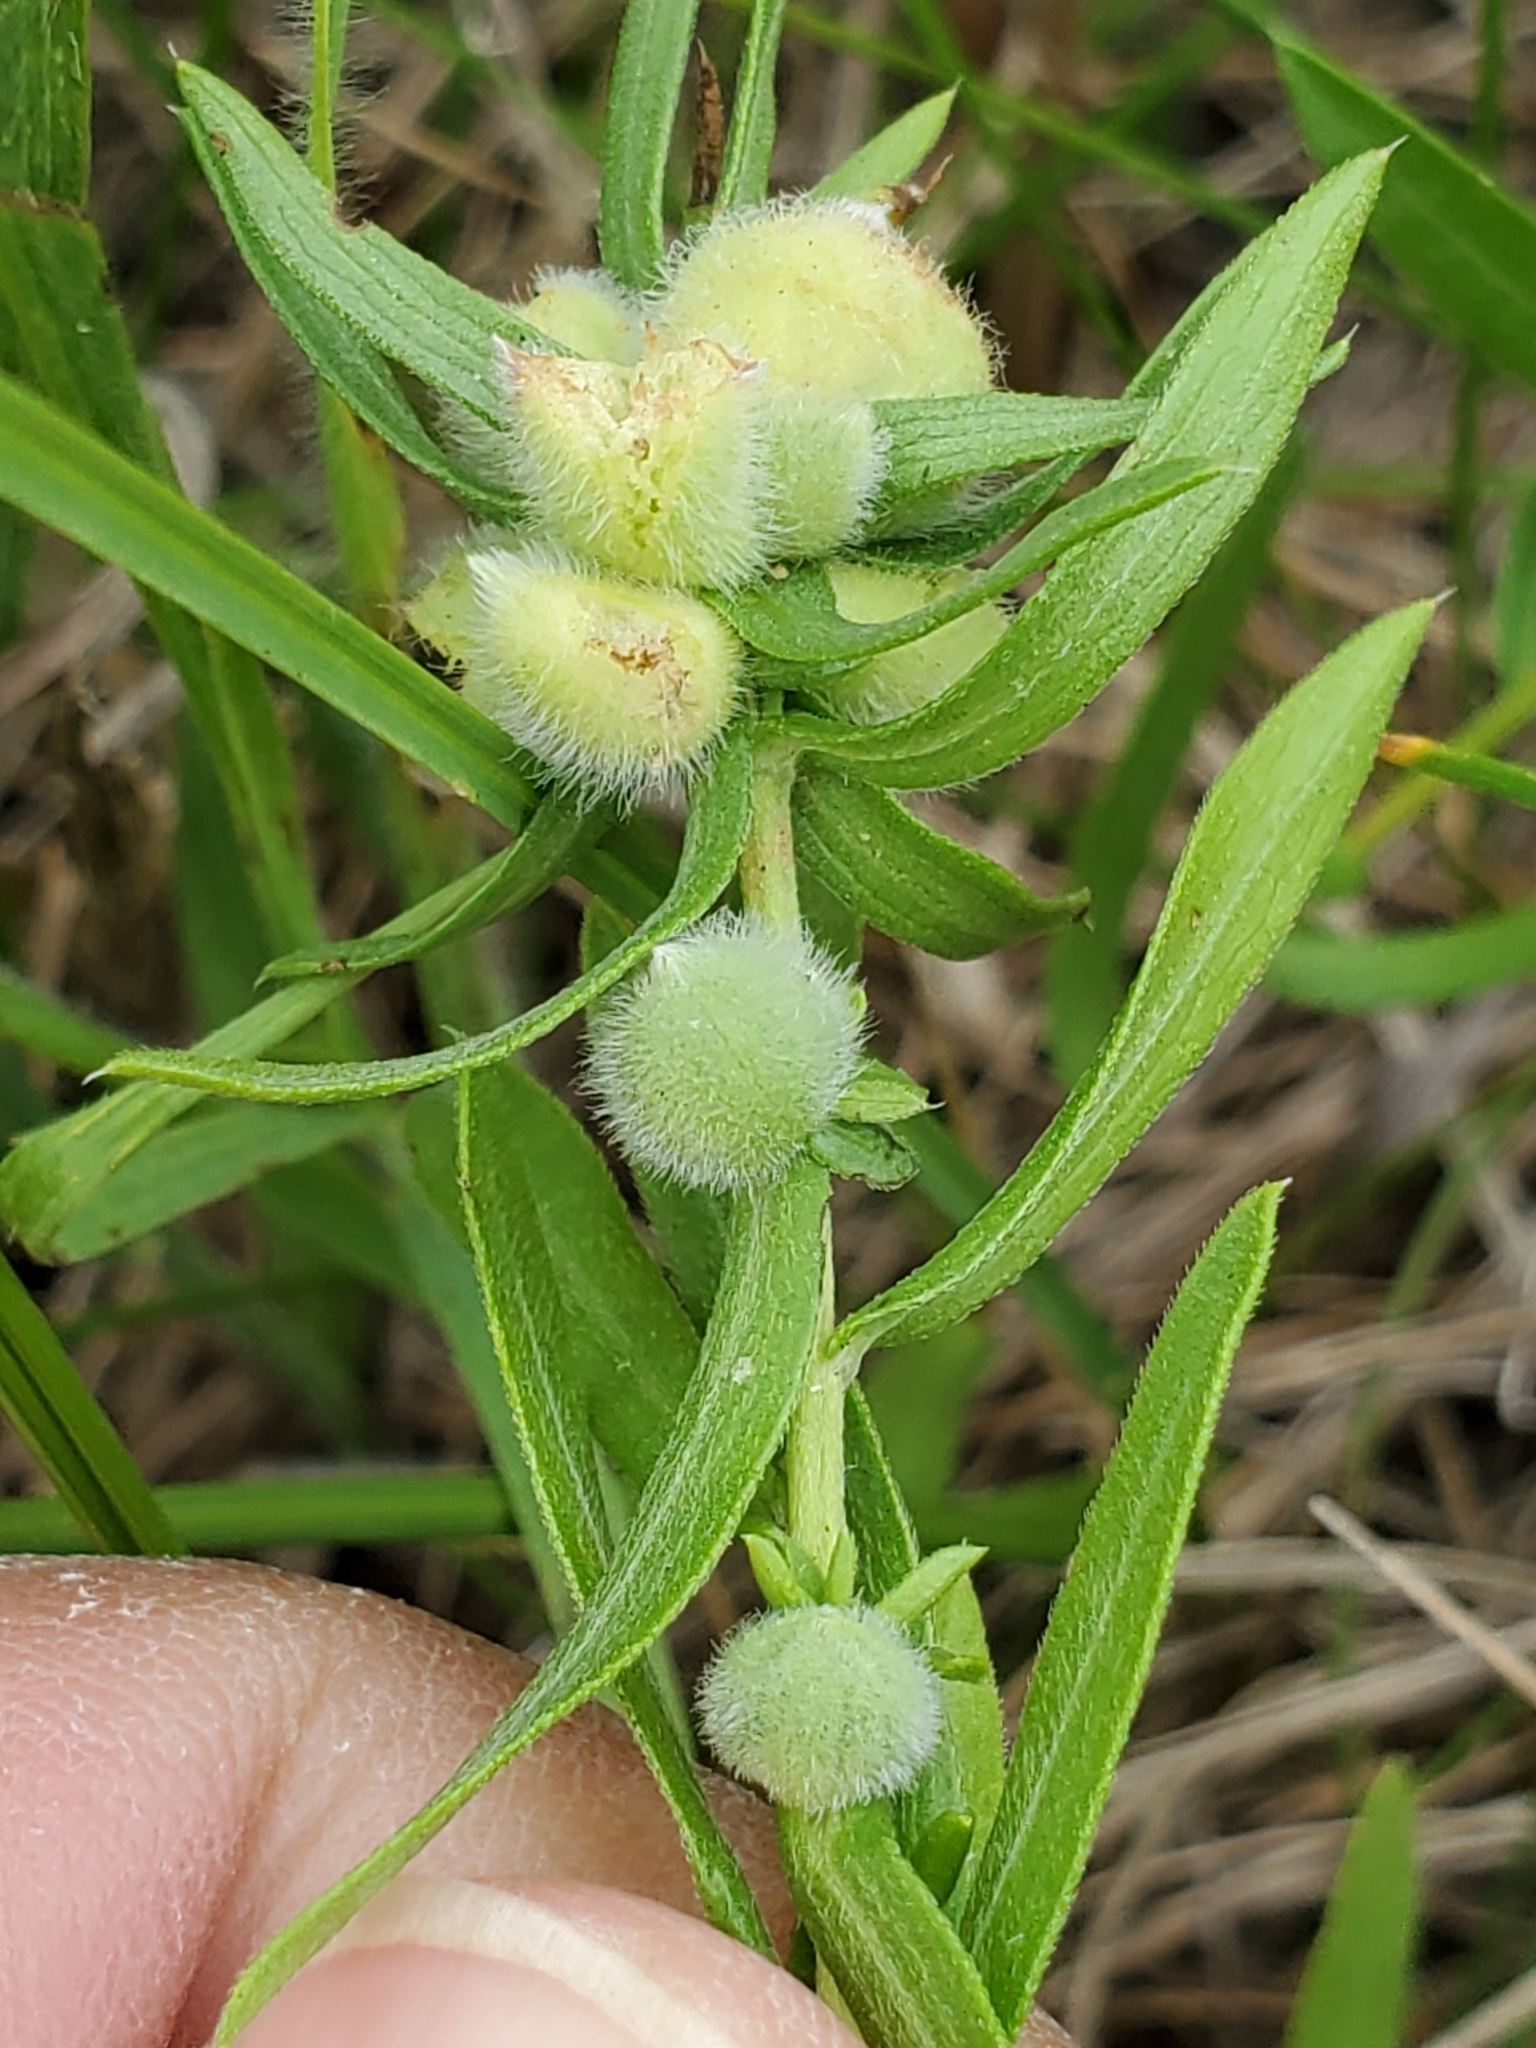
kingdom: Animalia
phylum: Arthropoda
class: Insecta
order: Diptera
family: Cecidomyiidae
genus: Rhopalomyia
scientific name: Rhopalomyia gemmaria
